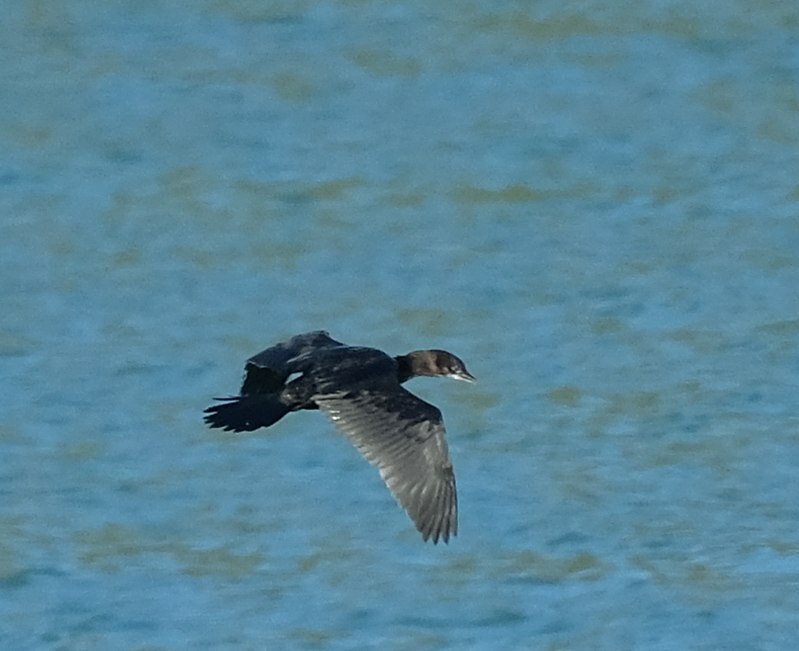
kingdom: Animalia
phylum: Chordata
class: Aves
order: Suliformes
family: Phalacrocoracidae
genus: Microcarbo
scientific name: Microcarbo pygmaeus
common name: Pygmy cormorant
